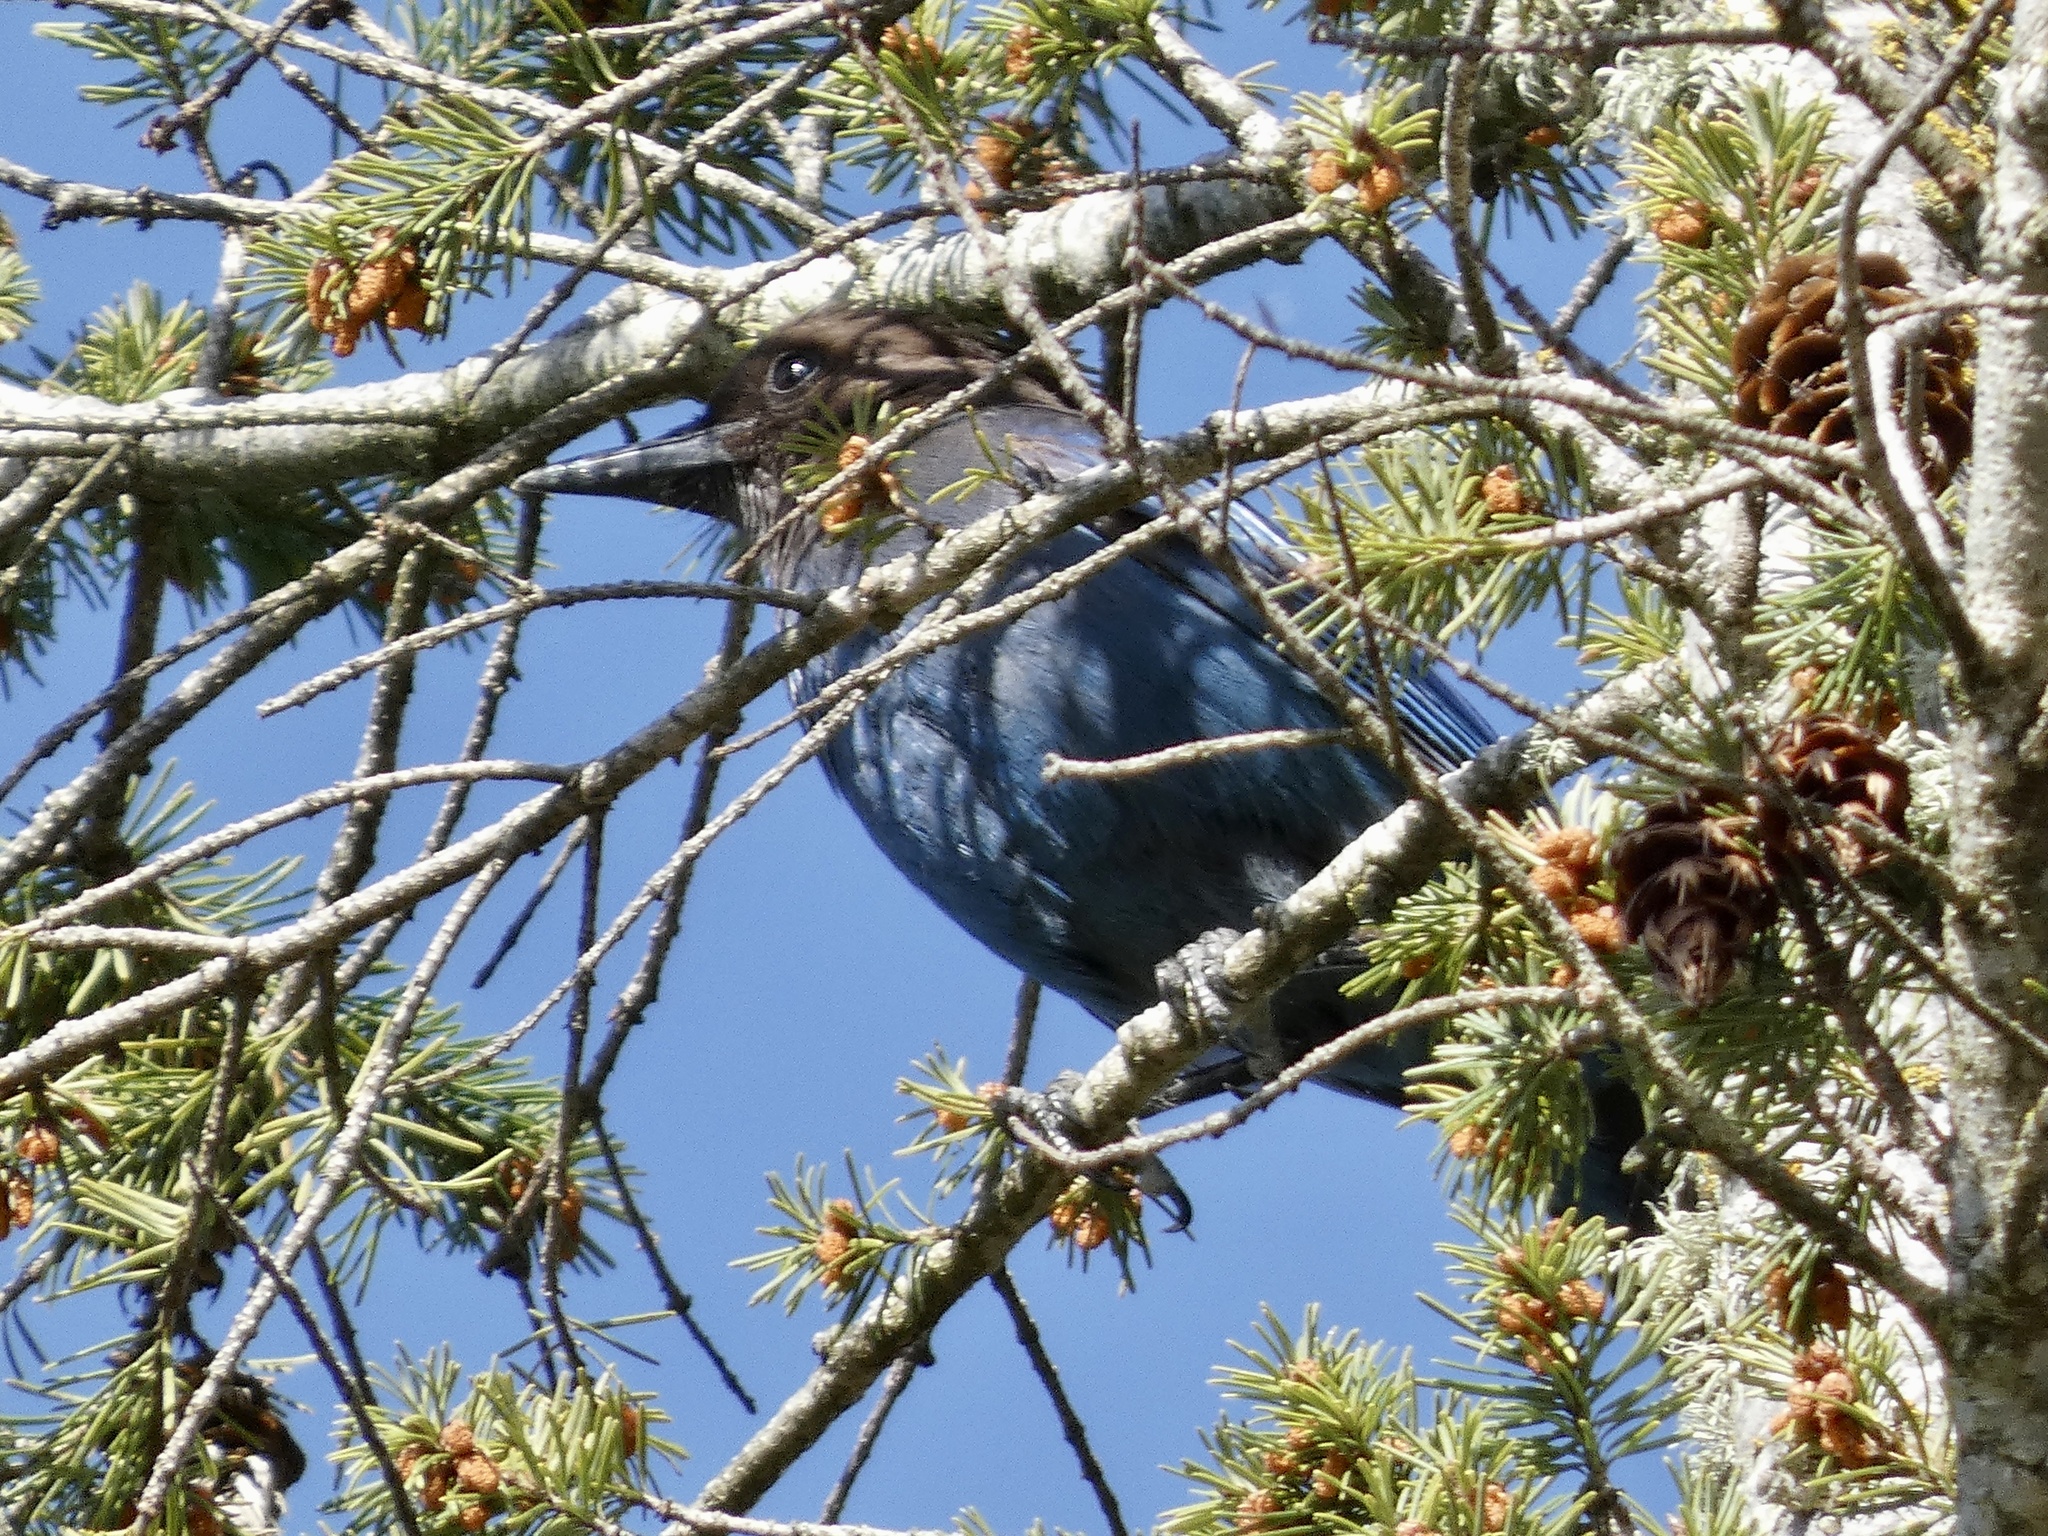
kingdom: Animalia
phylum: Chordata
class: Aves
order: Passeriformes
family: Corvidae
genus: Cyanocitta
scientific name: Cyanocitta stelleri
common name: Steller's jay
